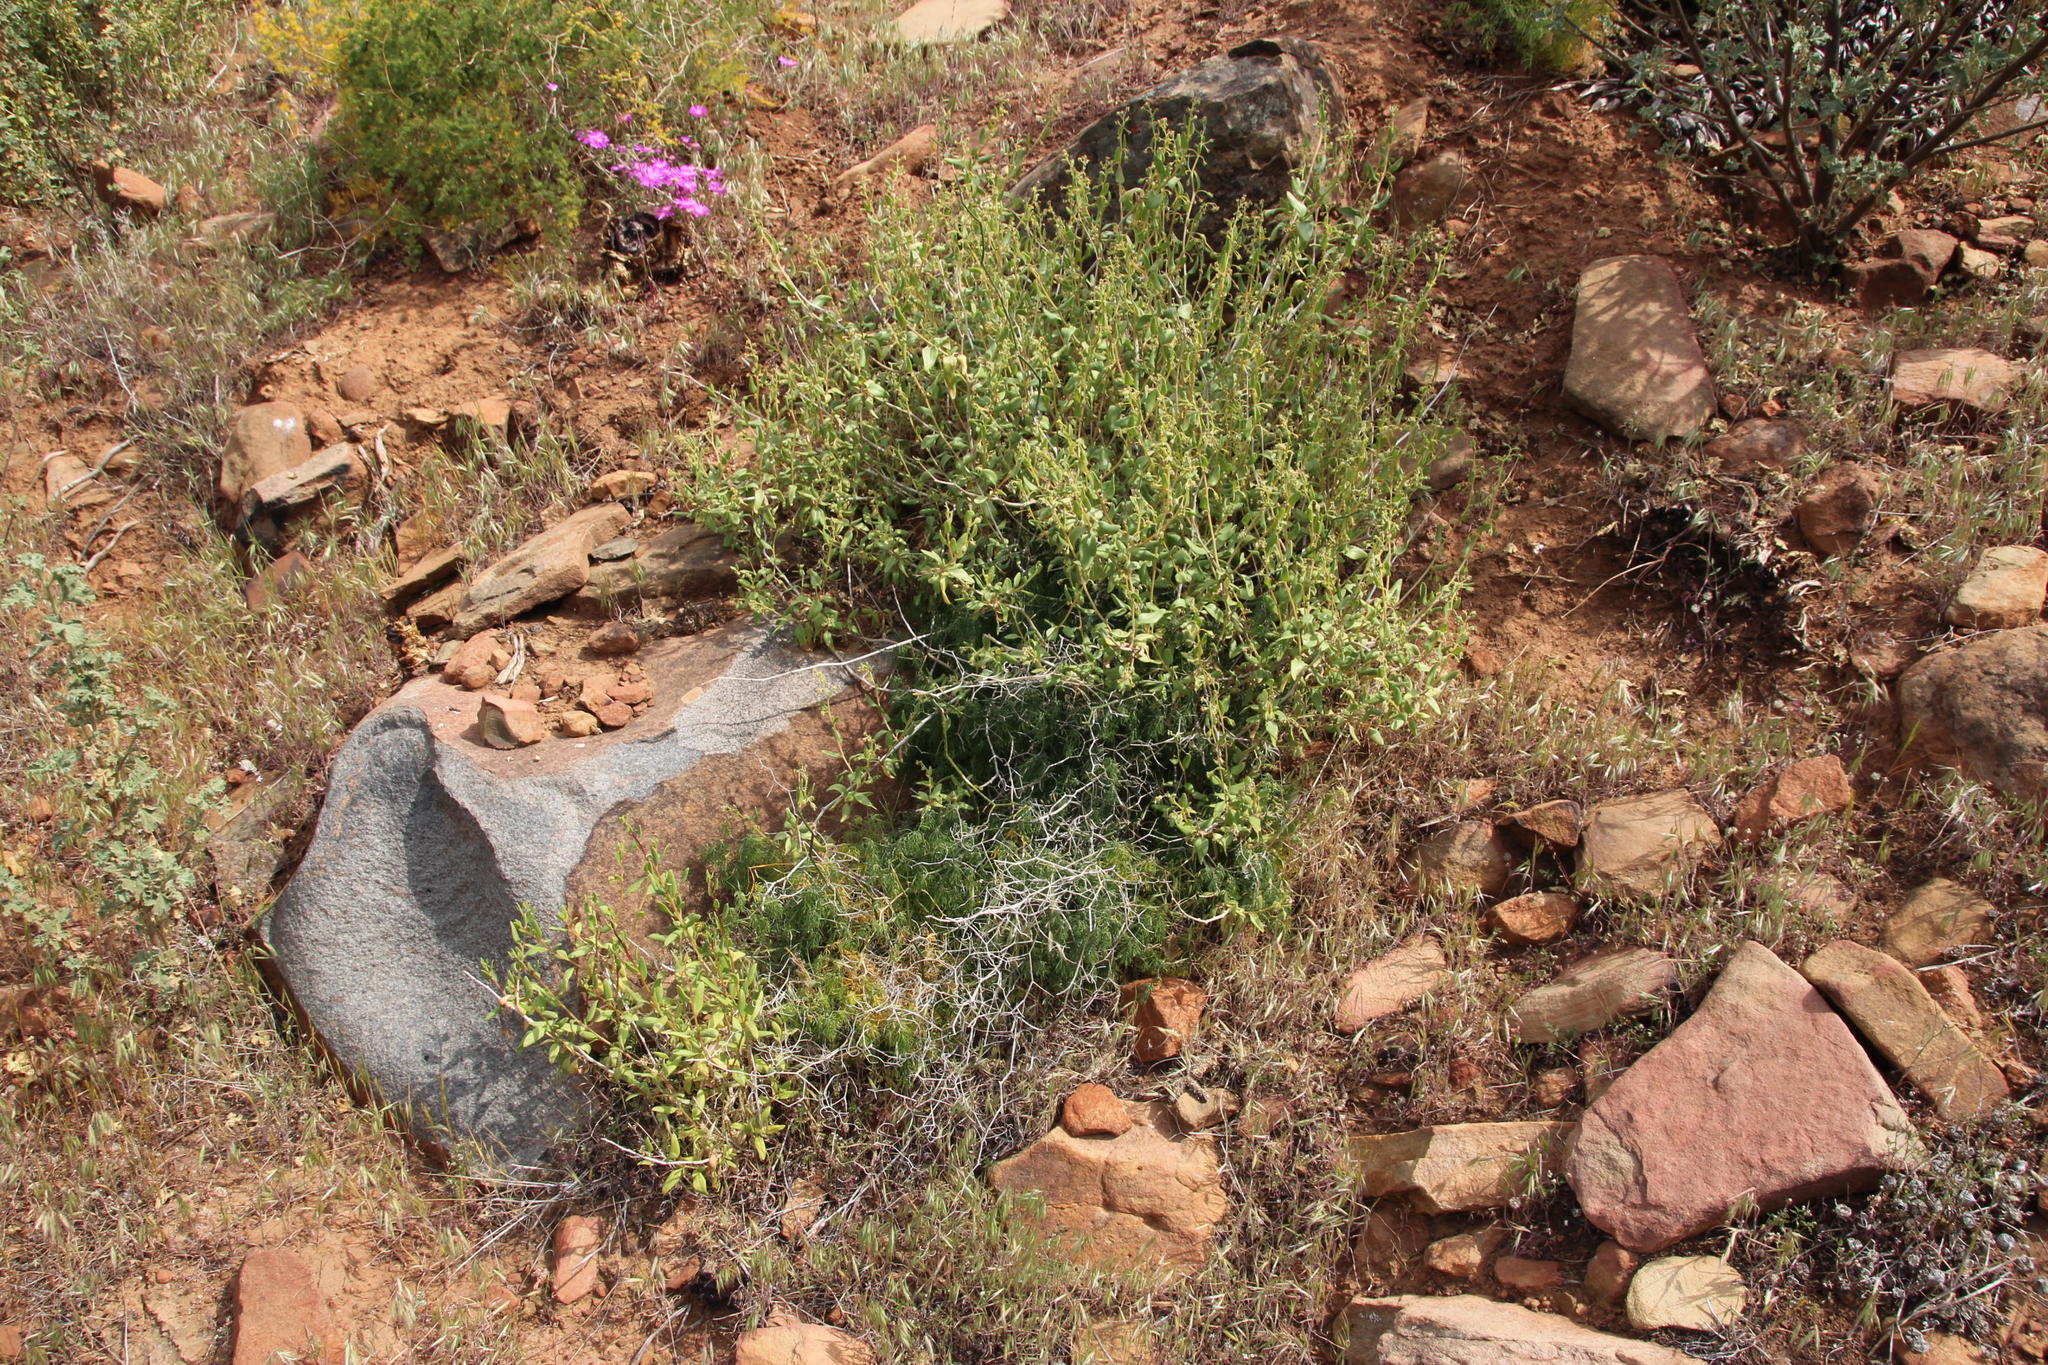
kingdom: Plantae
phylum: Tracheophyta
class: Liliopsida
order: Asparagales
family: Asparagaceae
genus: Asparagus
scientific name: Asparagus declinatus
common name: Bridal-creeper
